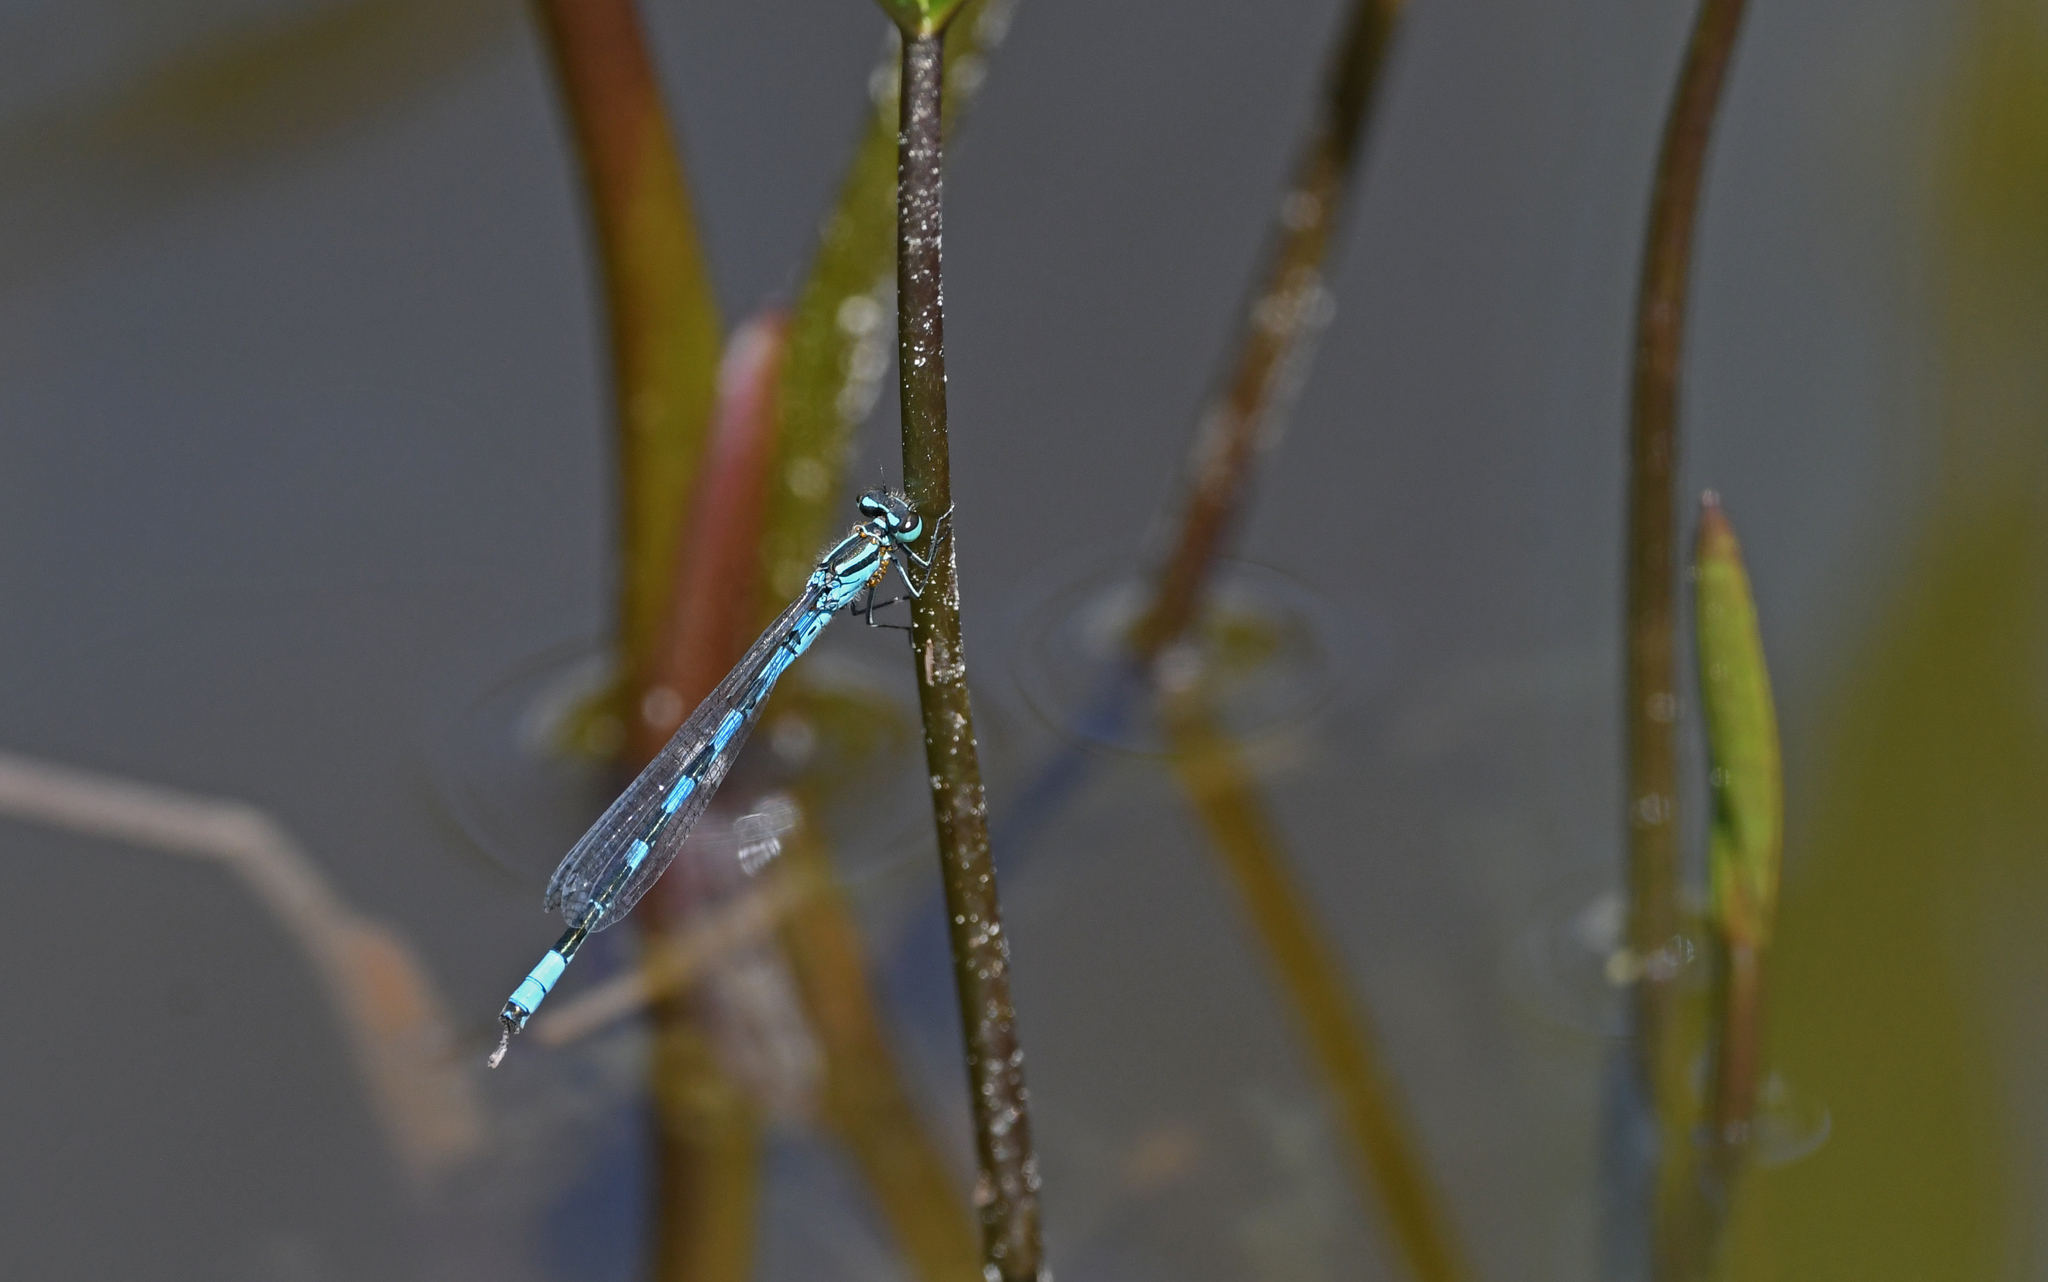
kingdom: Animalia
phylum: Arthropoda
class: Insecta
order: Odonata
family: Coenagrionidae
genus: Coenagrion
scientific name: Coenagrion hastulatum
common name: Spearhead bluet
